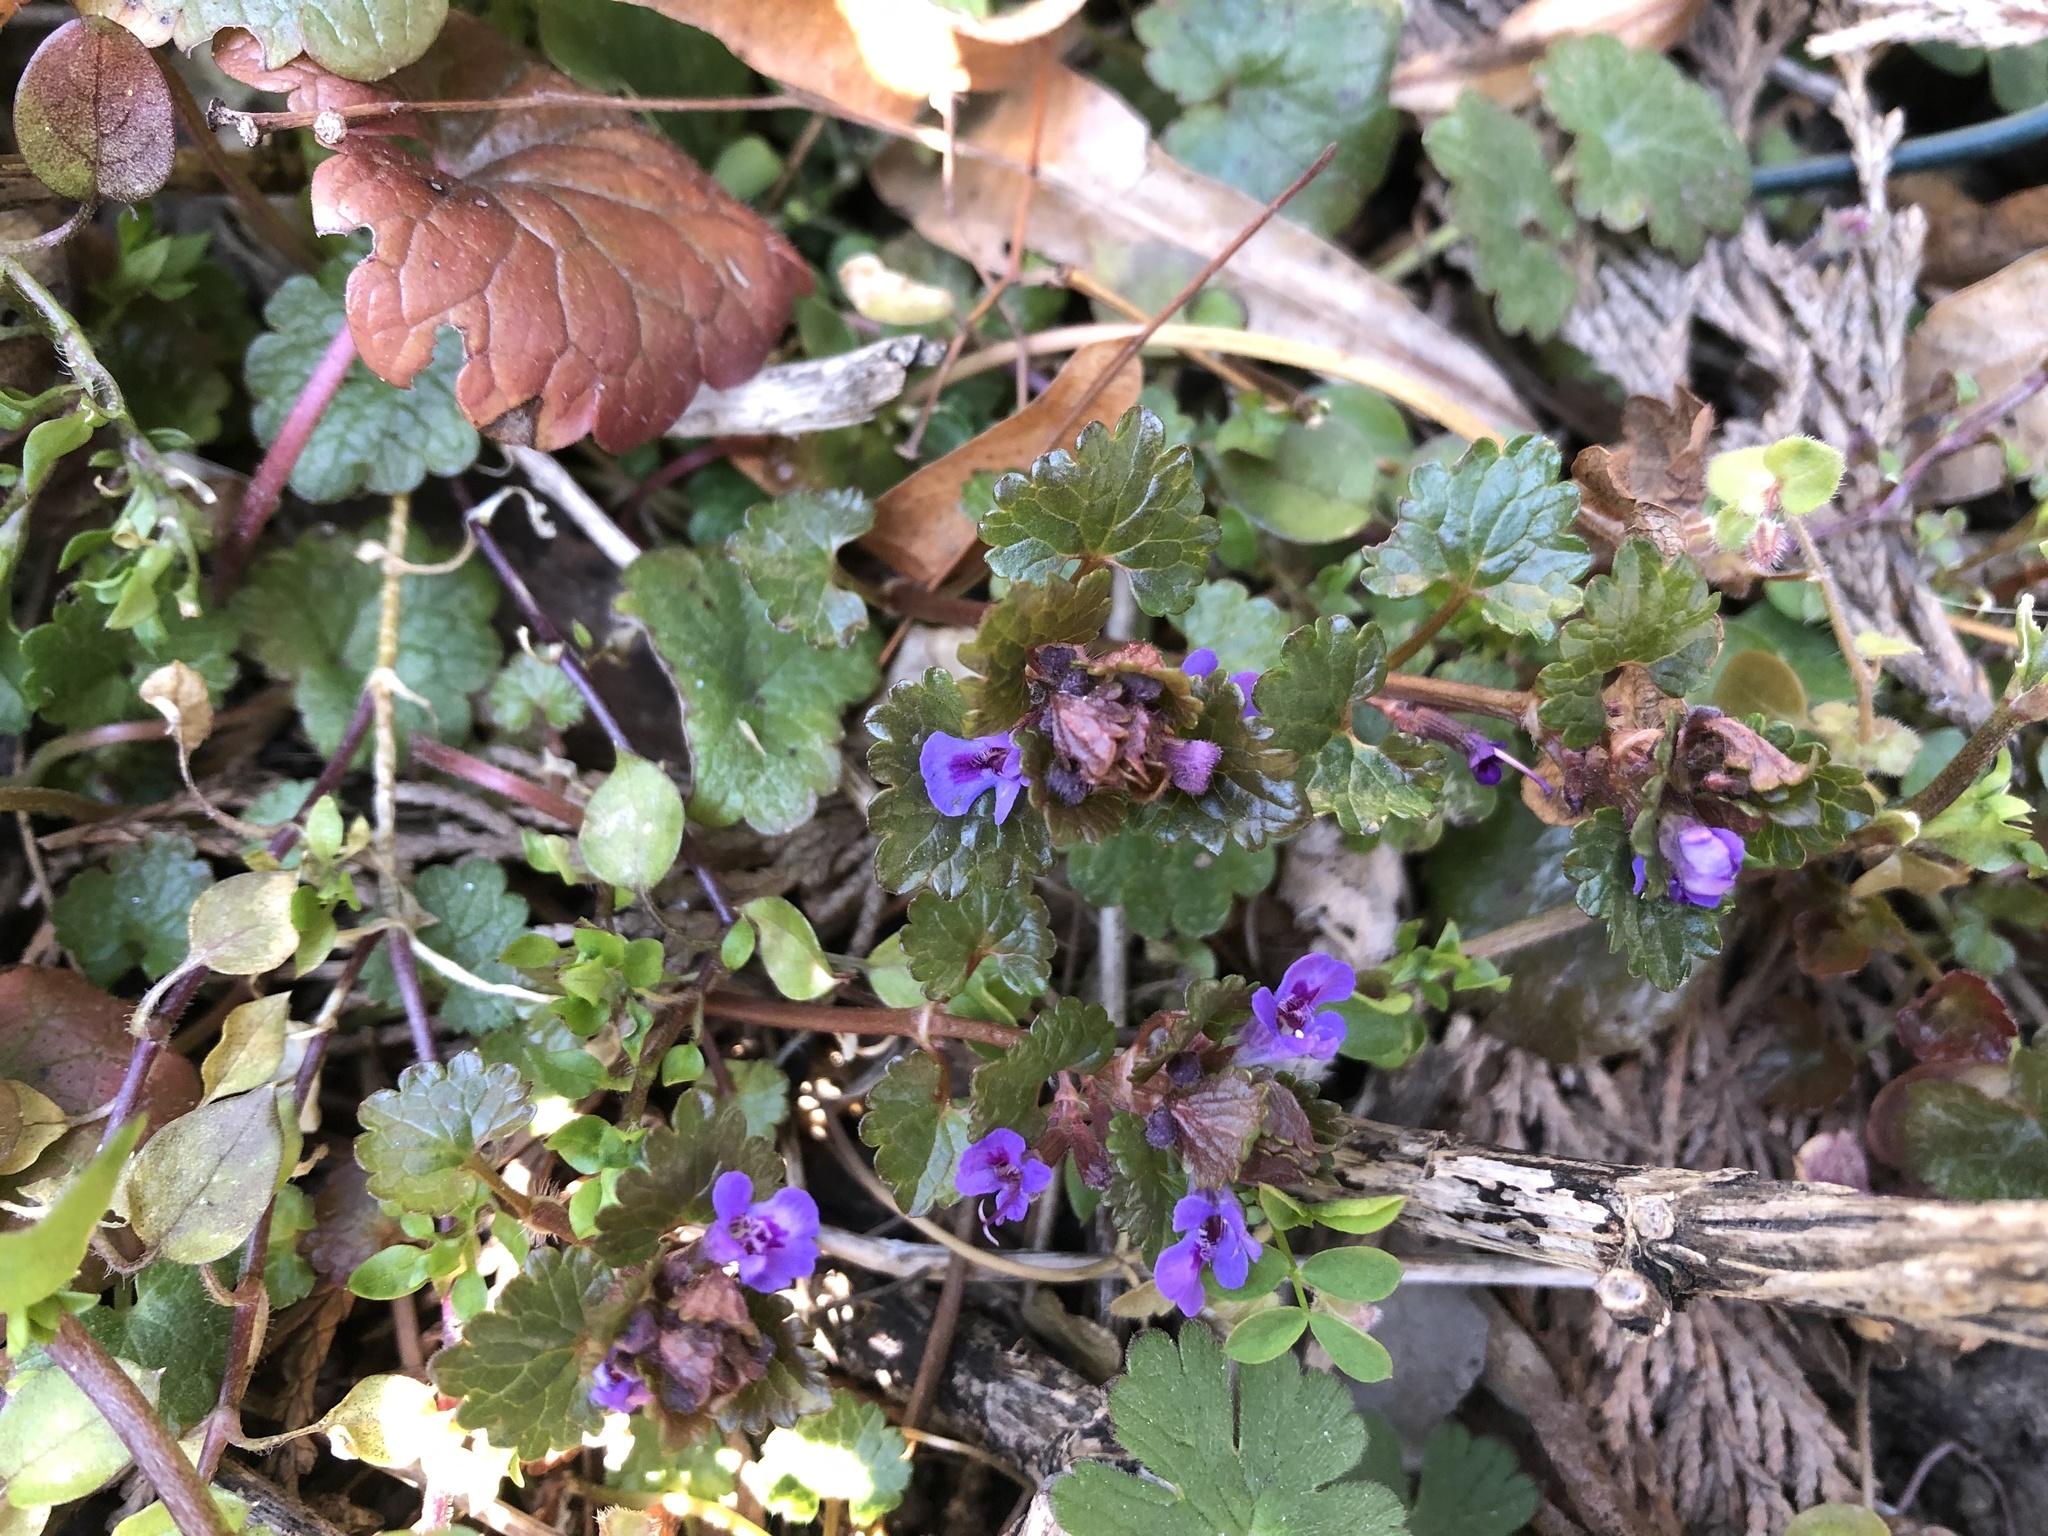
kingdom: Plantae
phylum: Tracheophyta
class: Magnoliopsida
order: Lamiales
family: Lamiaceae
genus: Glechoma
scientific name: Glechoma hederacea
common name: Ground ivy
